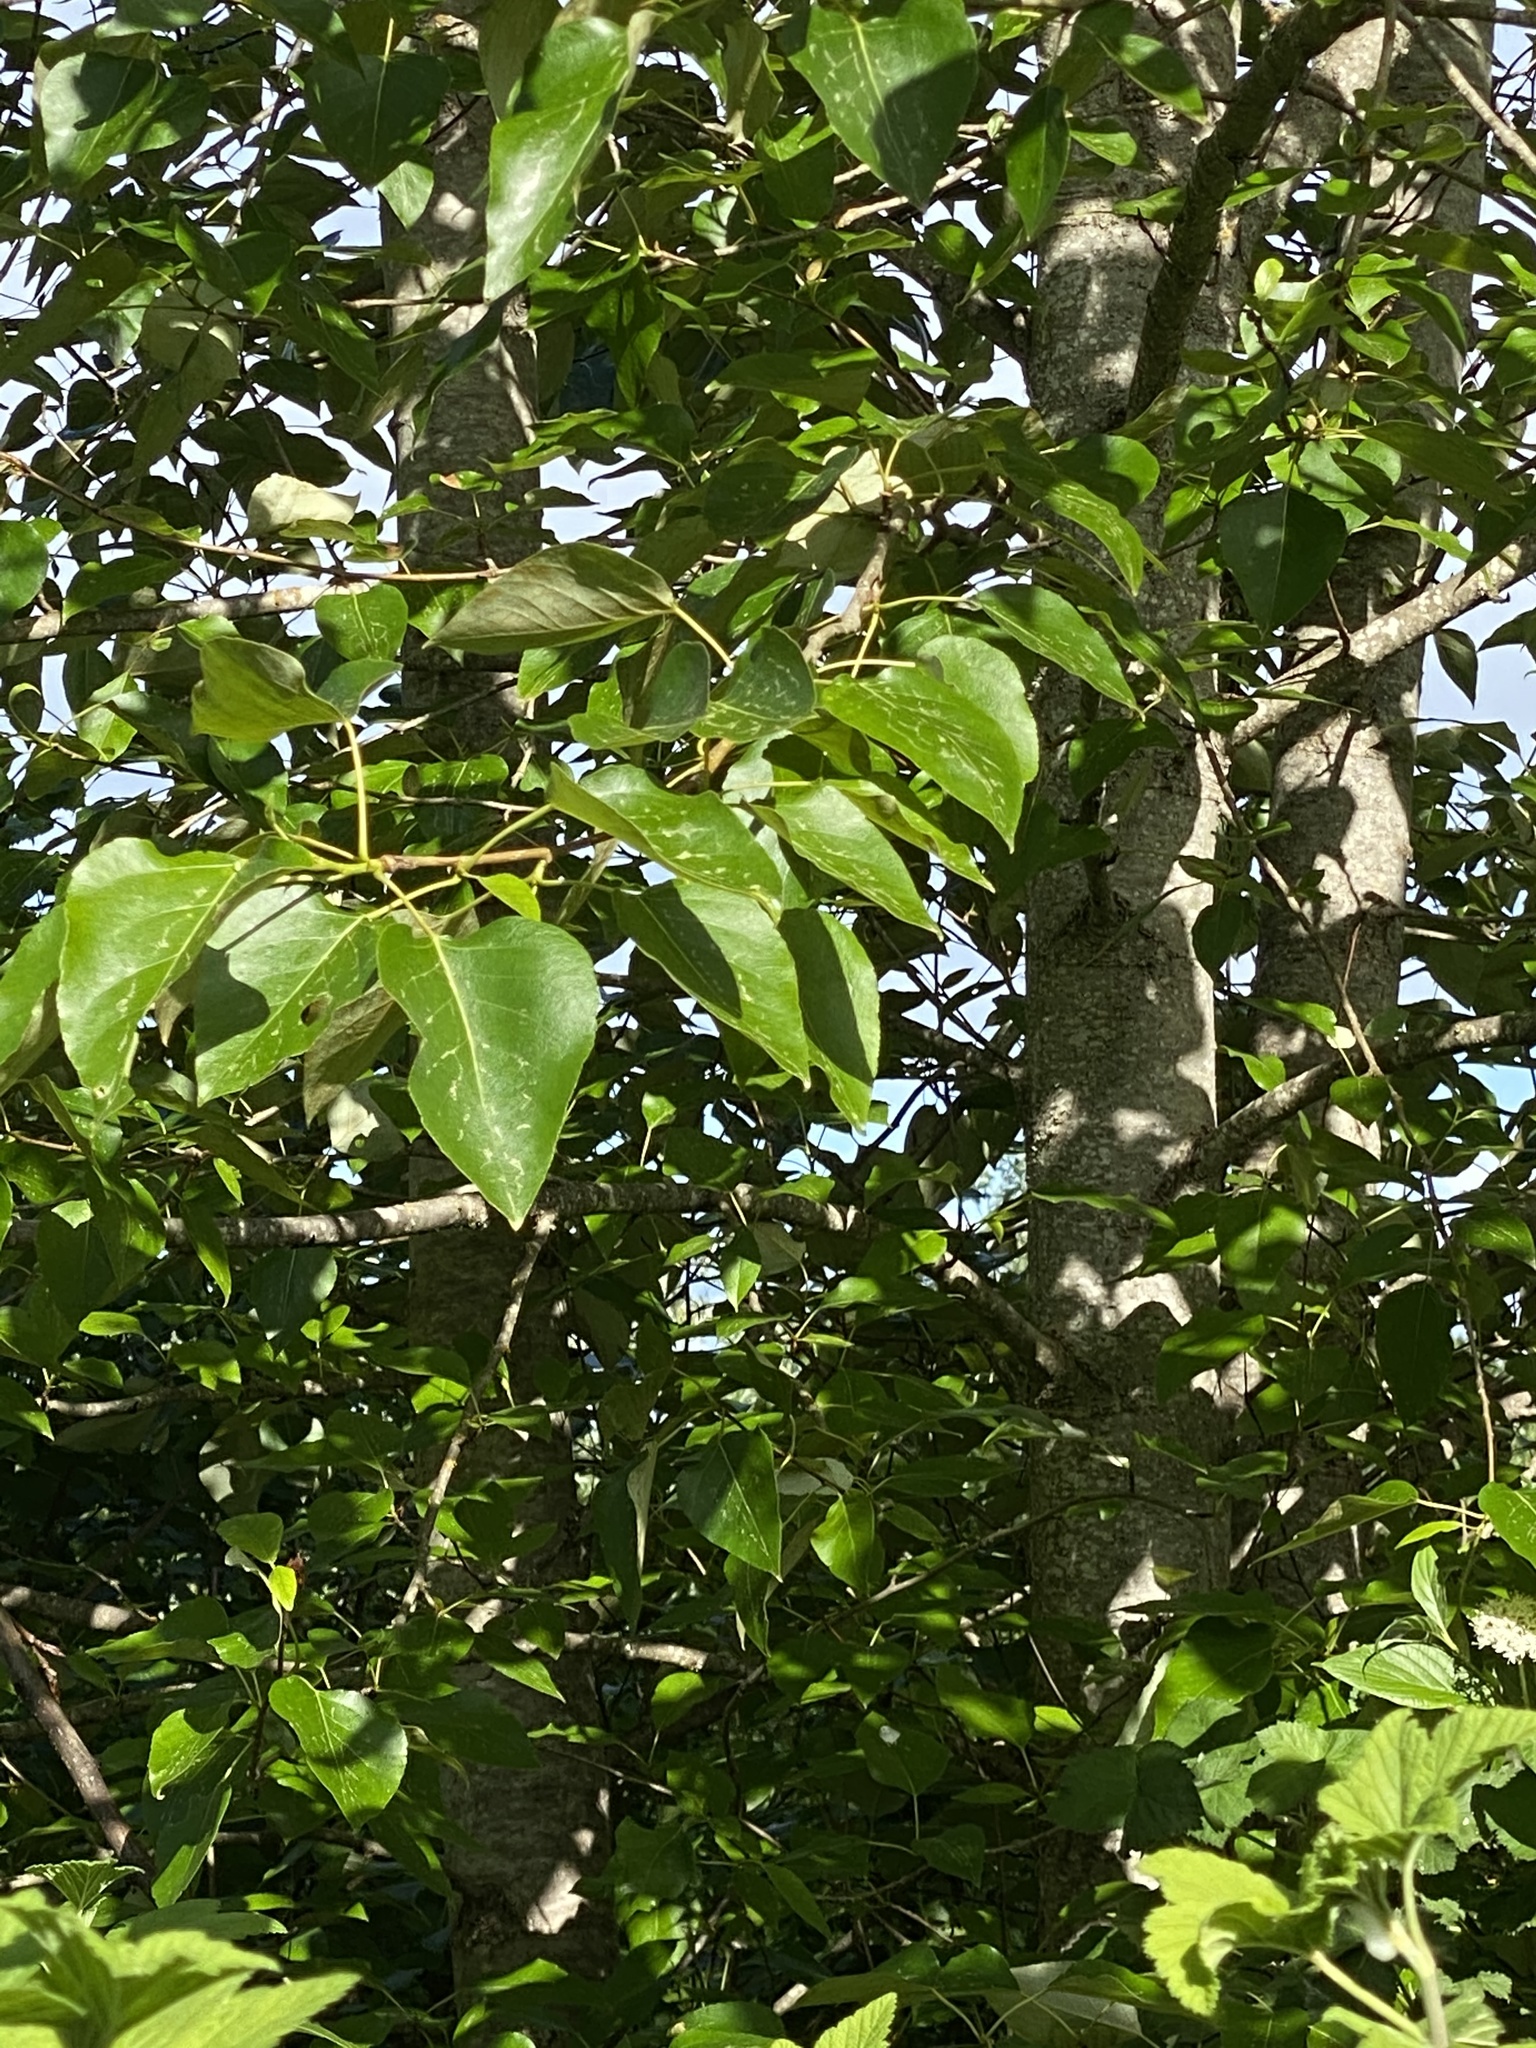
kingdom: Plantae
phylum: Tracheophyta
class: Magnoliopsida
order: Malpighiales
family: Salicaceae
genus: Populus
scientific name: Populus trichocarpa
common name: Black cottonwood
